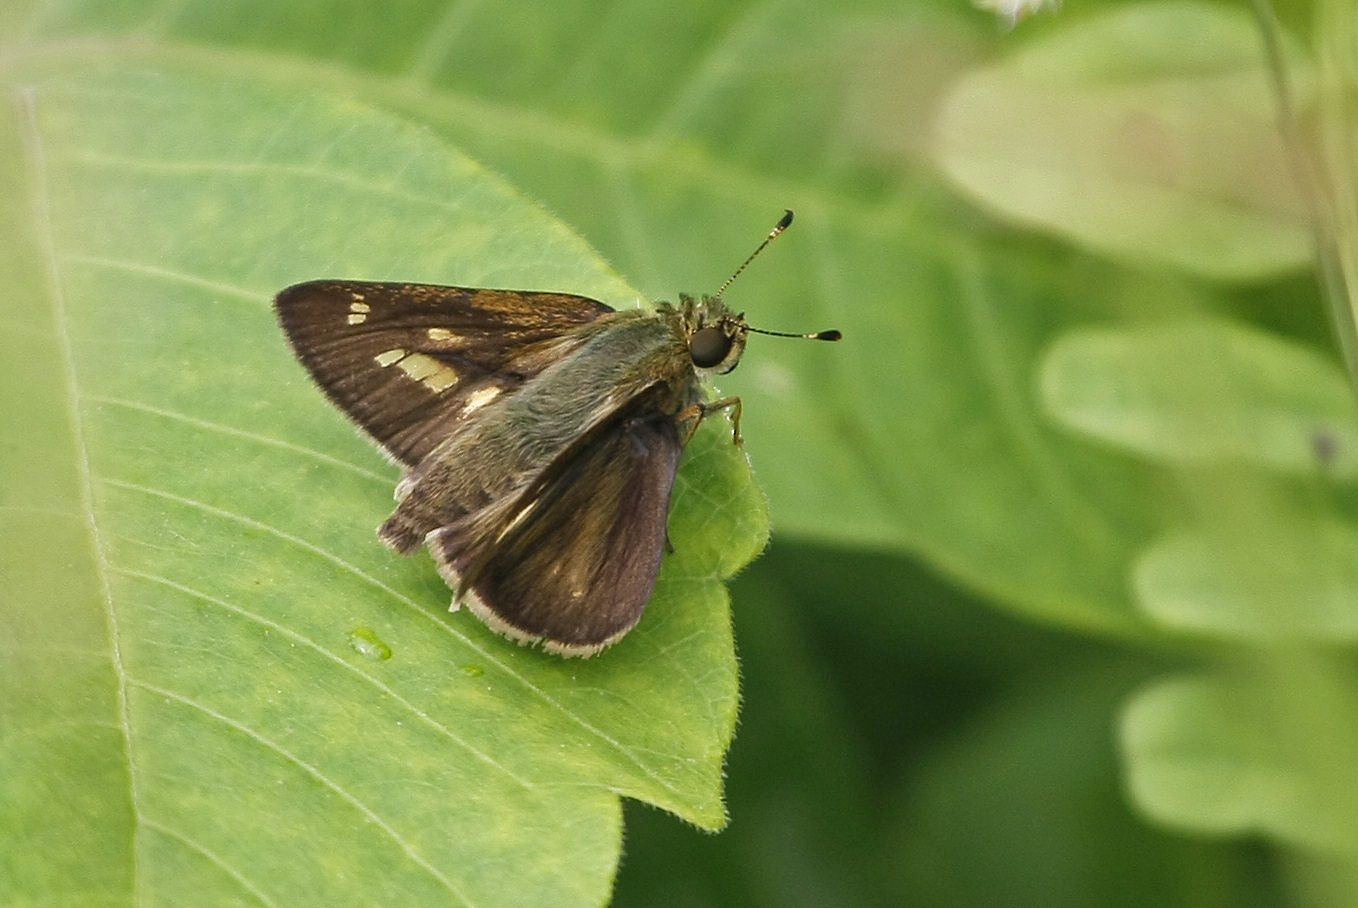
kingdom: Animalia
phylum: Arthropoda
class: Insecta
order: Lepidoptera
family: Hesperiidae
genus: Vernia
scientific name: Vernia verna
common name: Little glassywing
